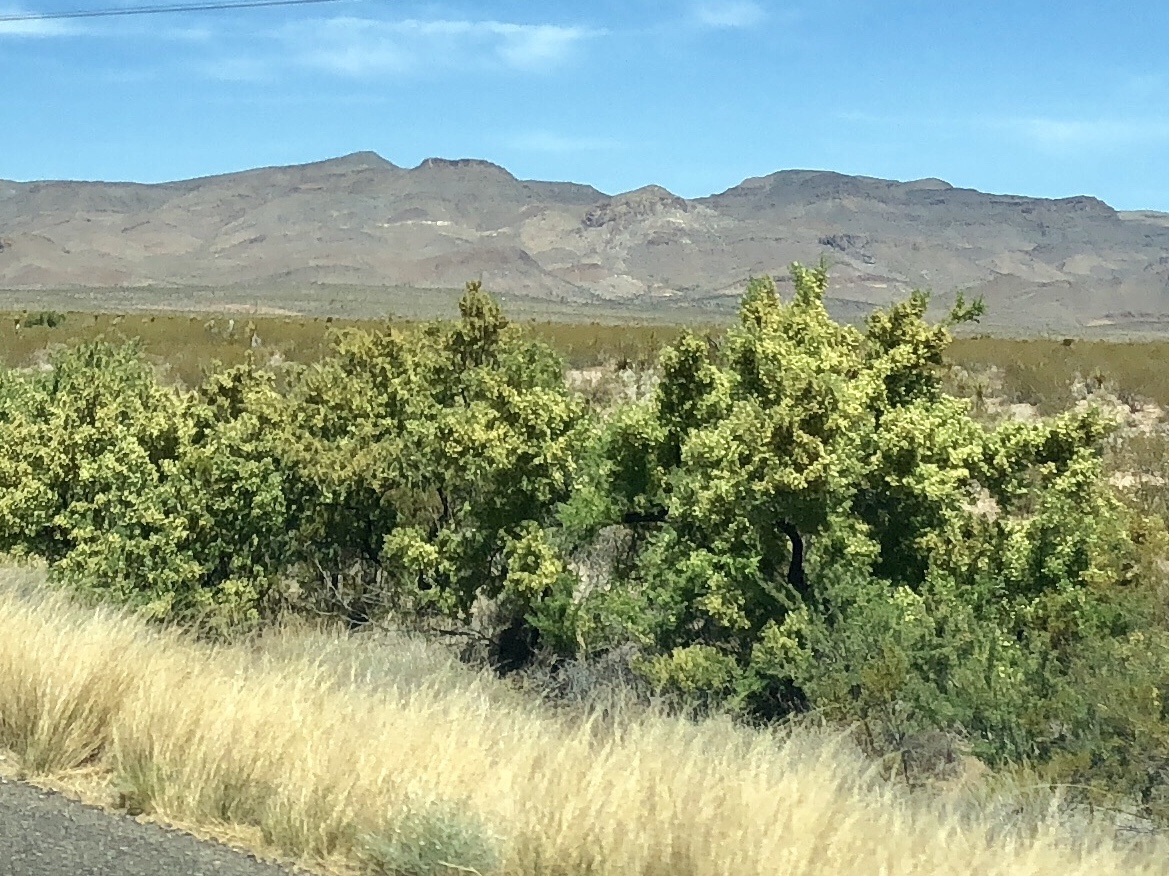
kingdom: Plantae
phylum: Tracheophyta
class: Magnoliopsida
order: Fabales
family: Fabaceae
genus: Senegalia
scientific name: Senegalia greggii
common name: Texas-mimosa
